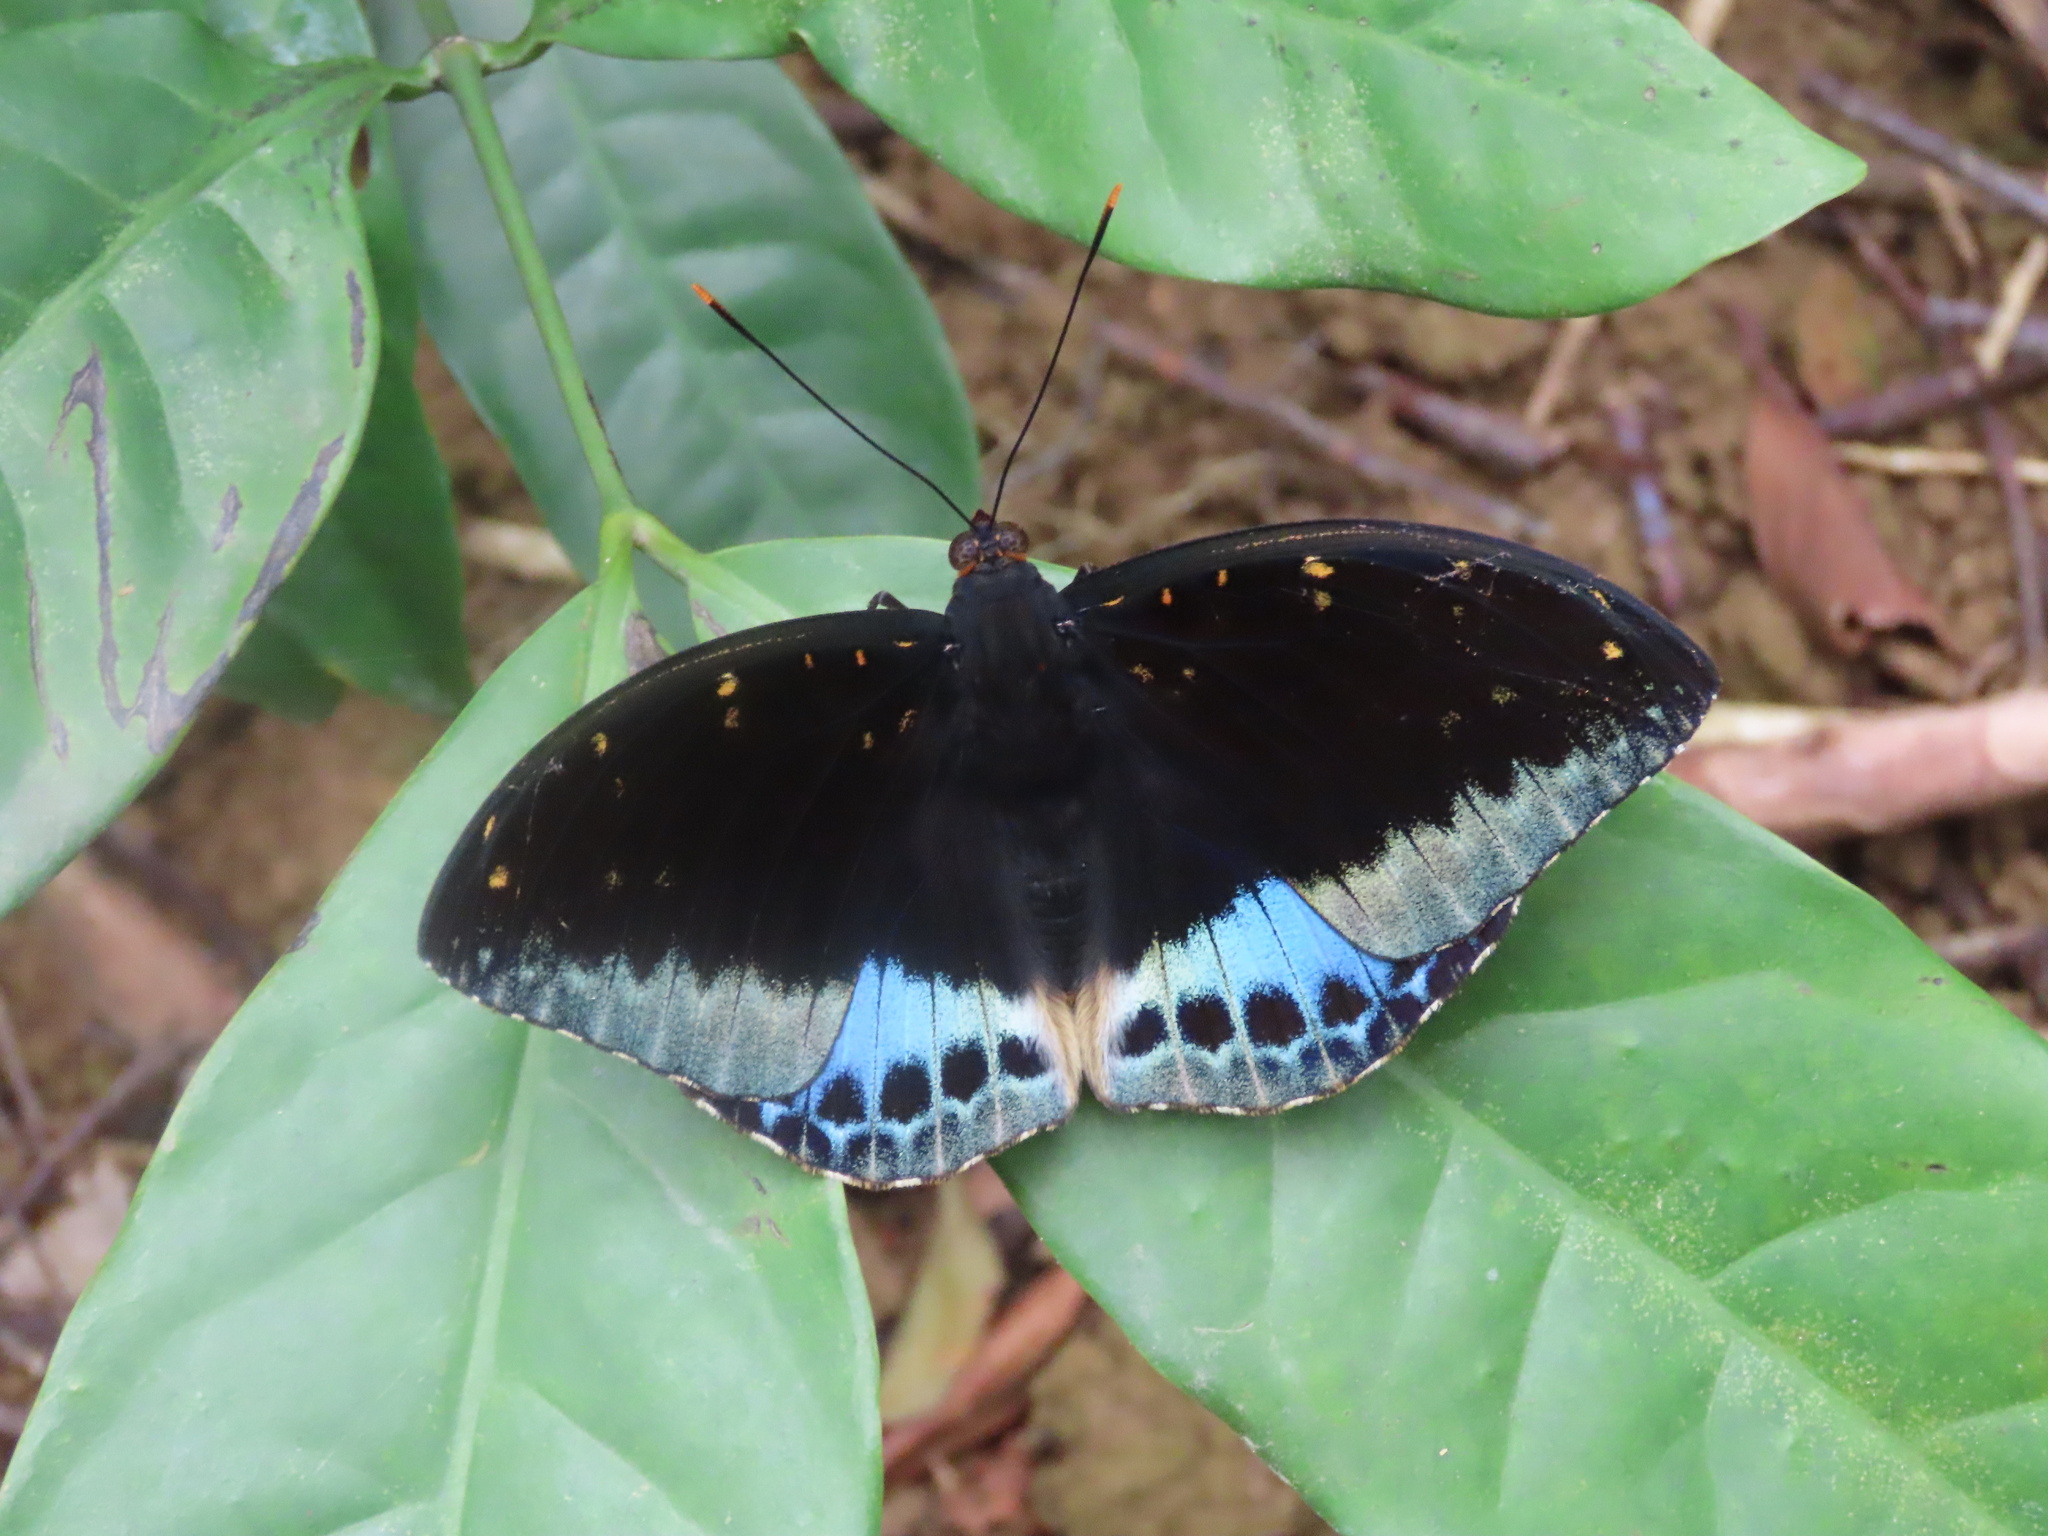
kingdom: Animalia
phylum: Arthropoda
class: Insecta
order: Lepidoptera
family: Nymphalidae
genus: Lexias
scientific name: Lexias pardalis
